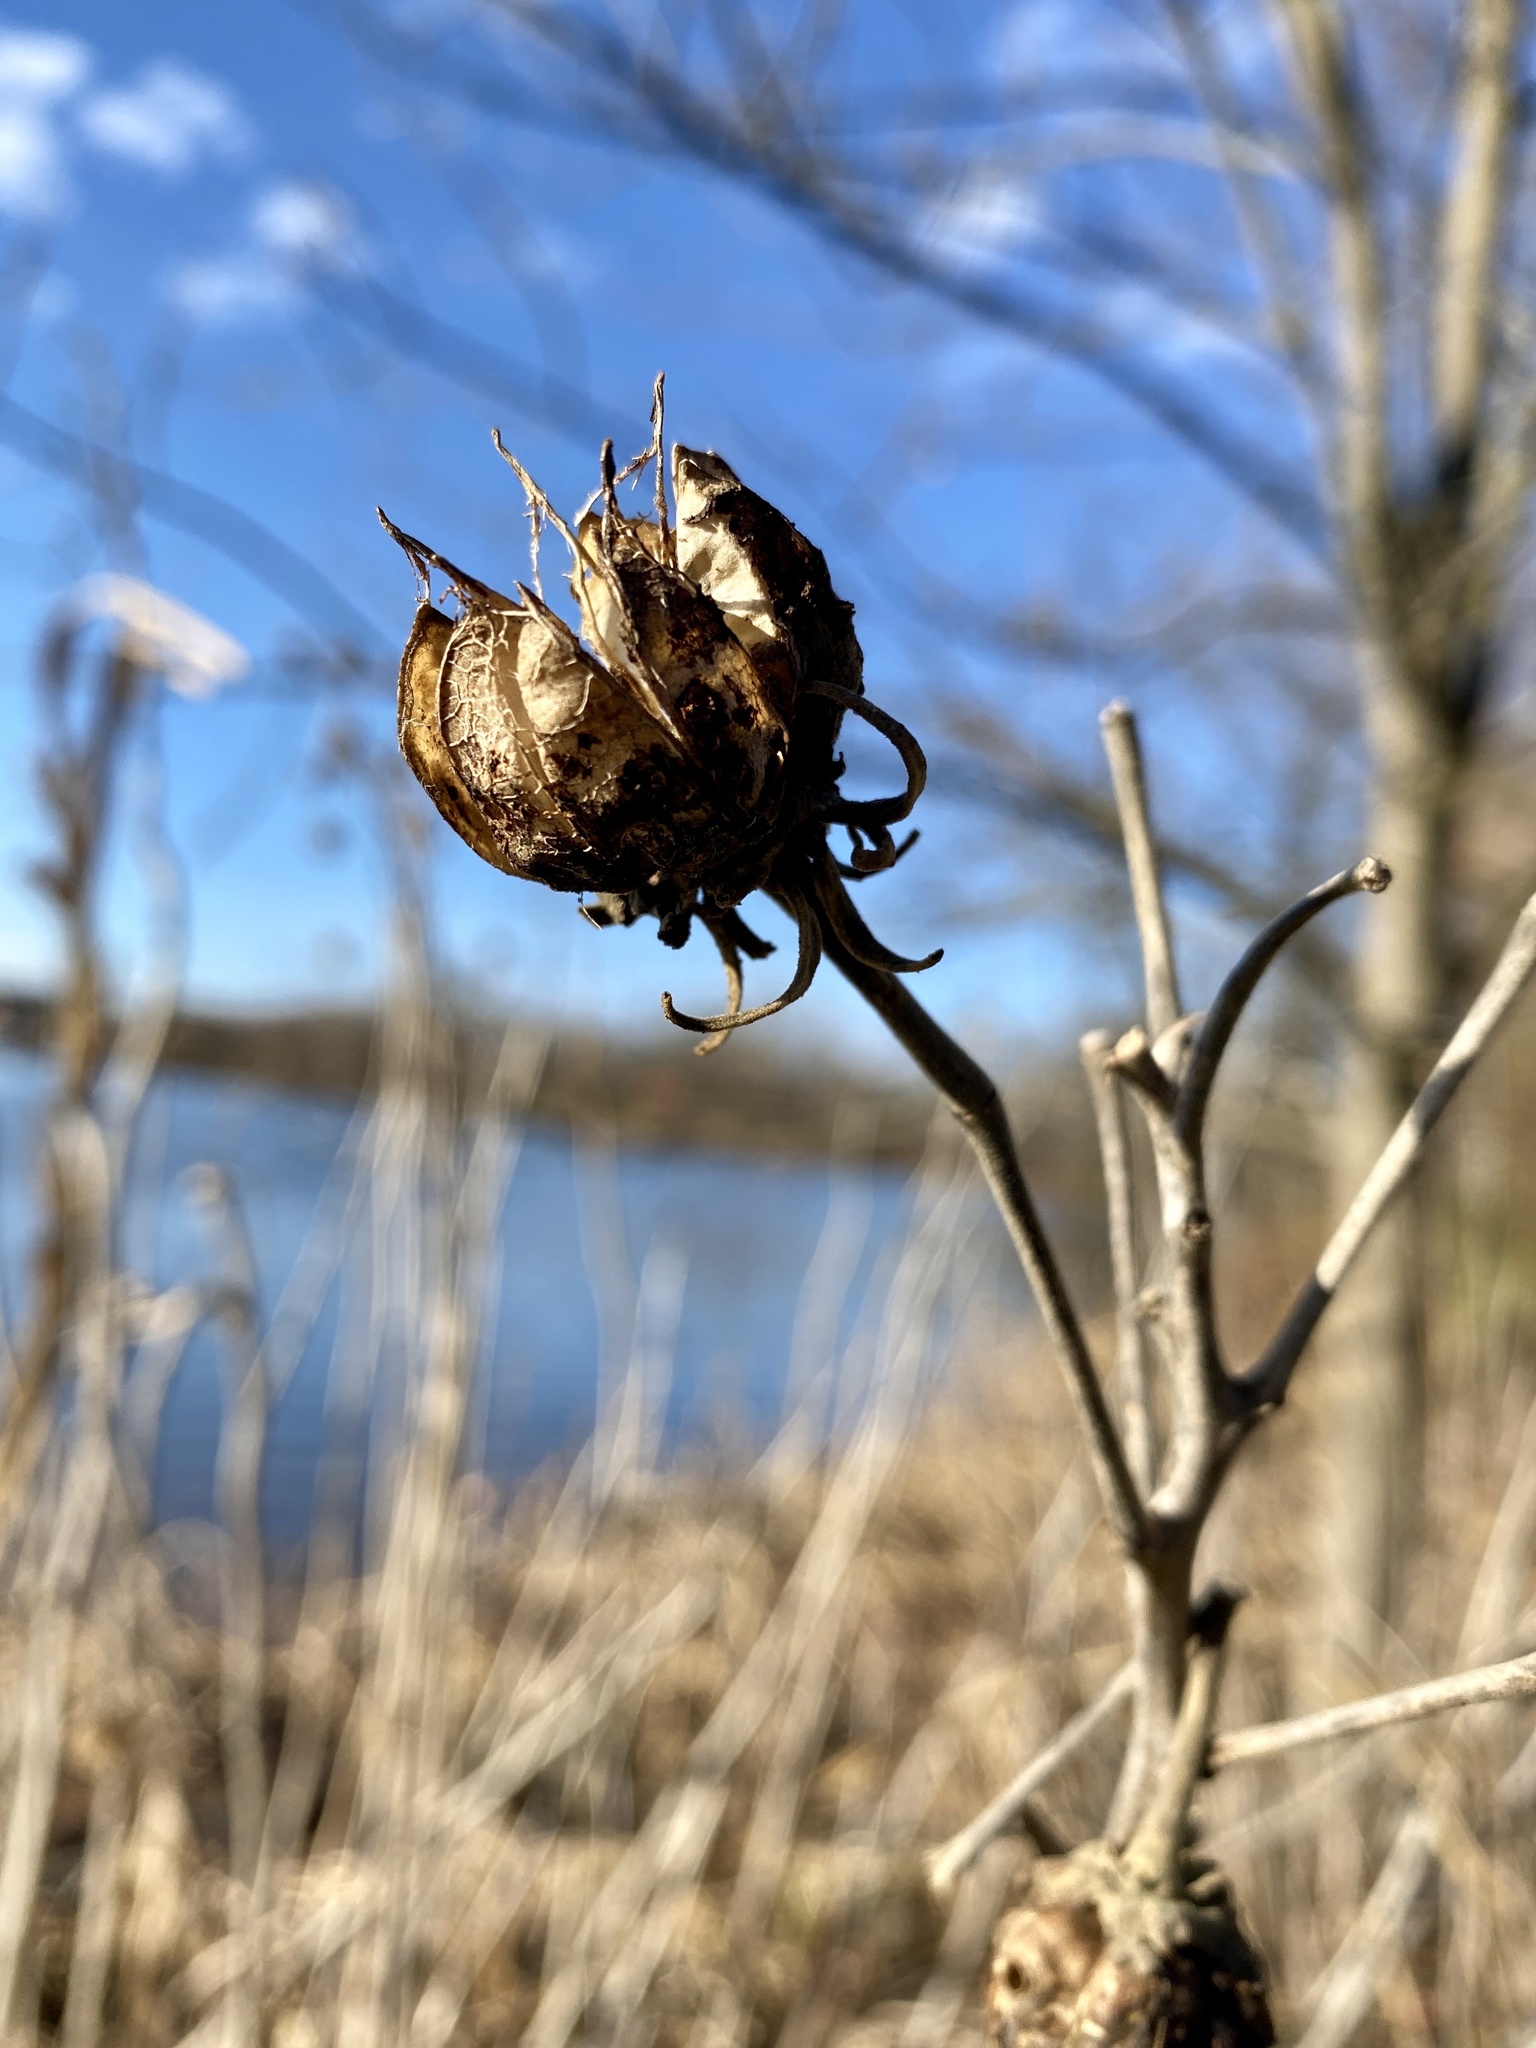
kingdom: Plantae
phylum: Tracheophyta
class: Magnoliopsida
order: Malvales
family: Malvaceae
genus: Hibiscus
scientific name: Hibiscus moscheutos
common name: Common rose-mallow
